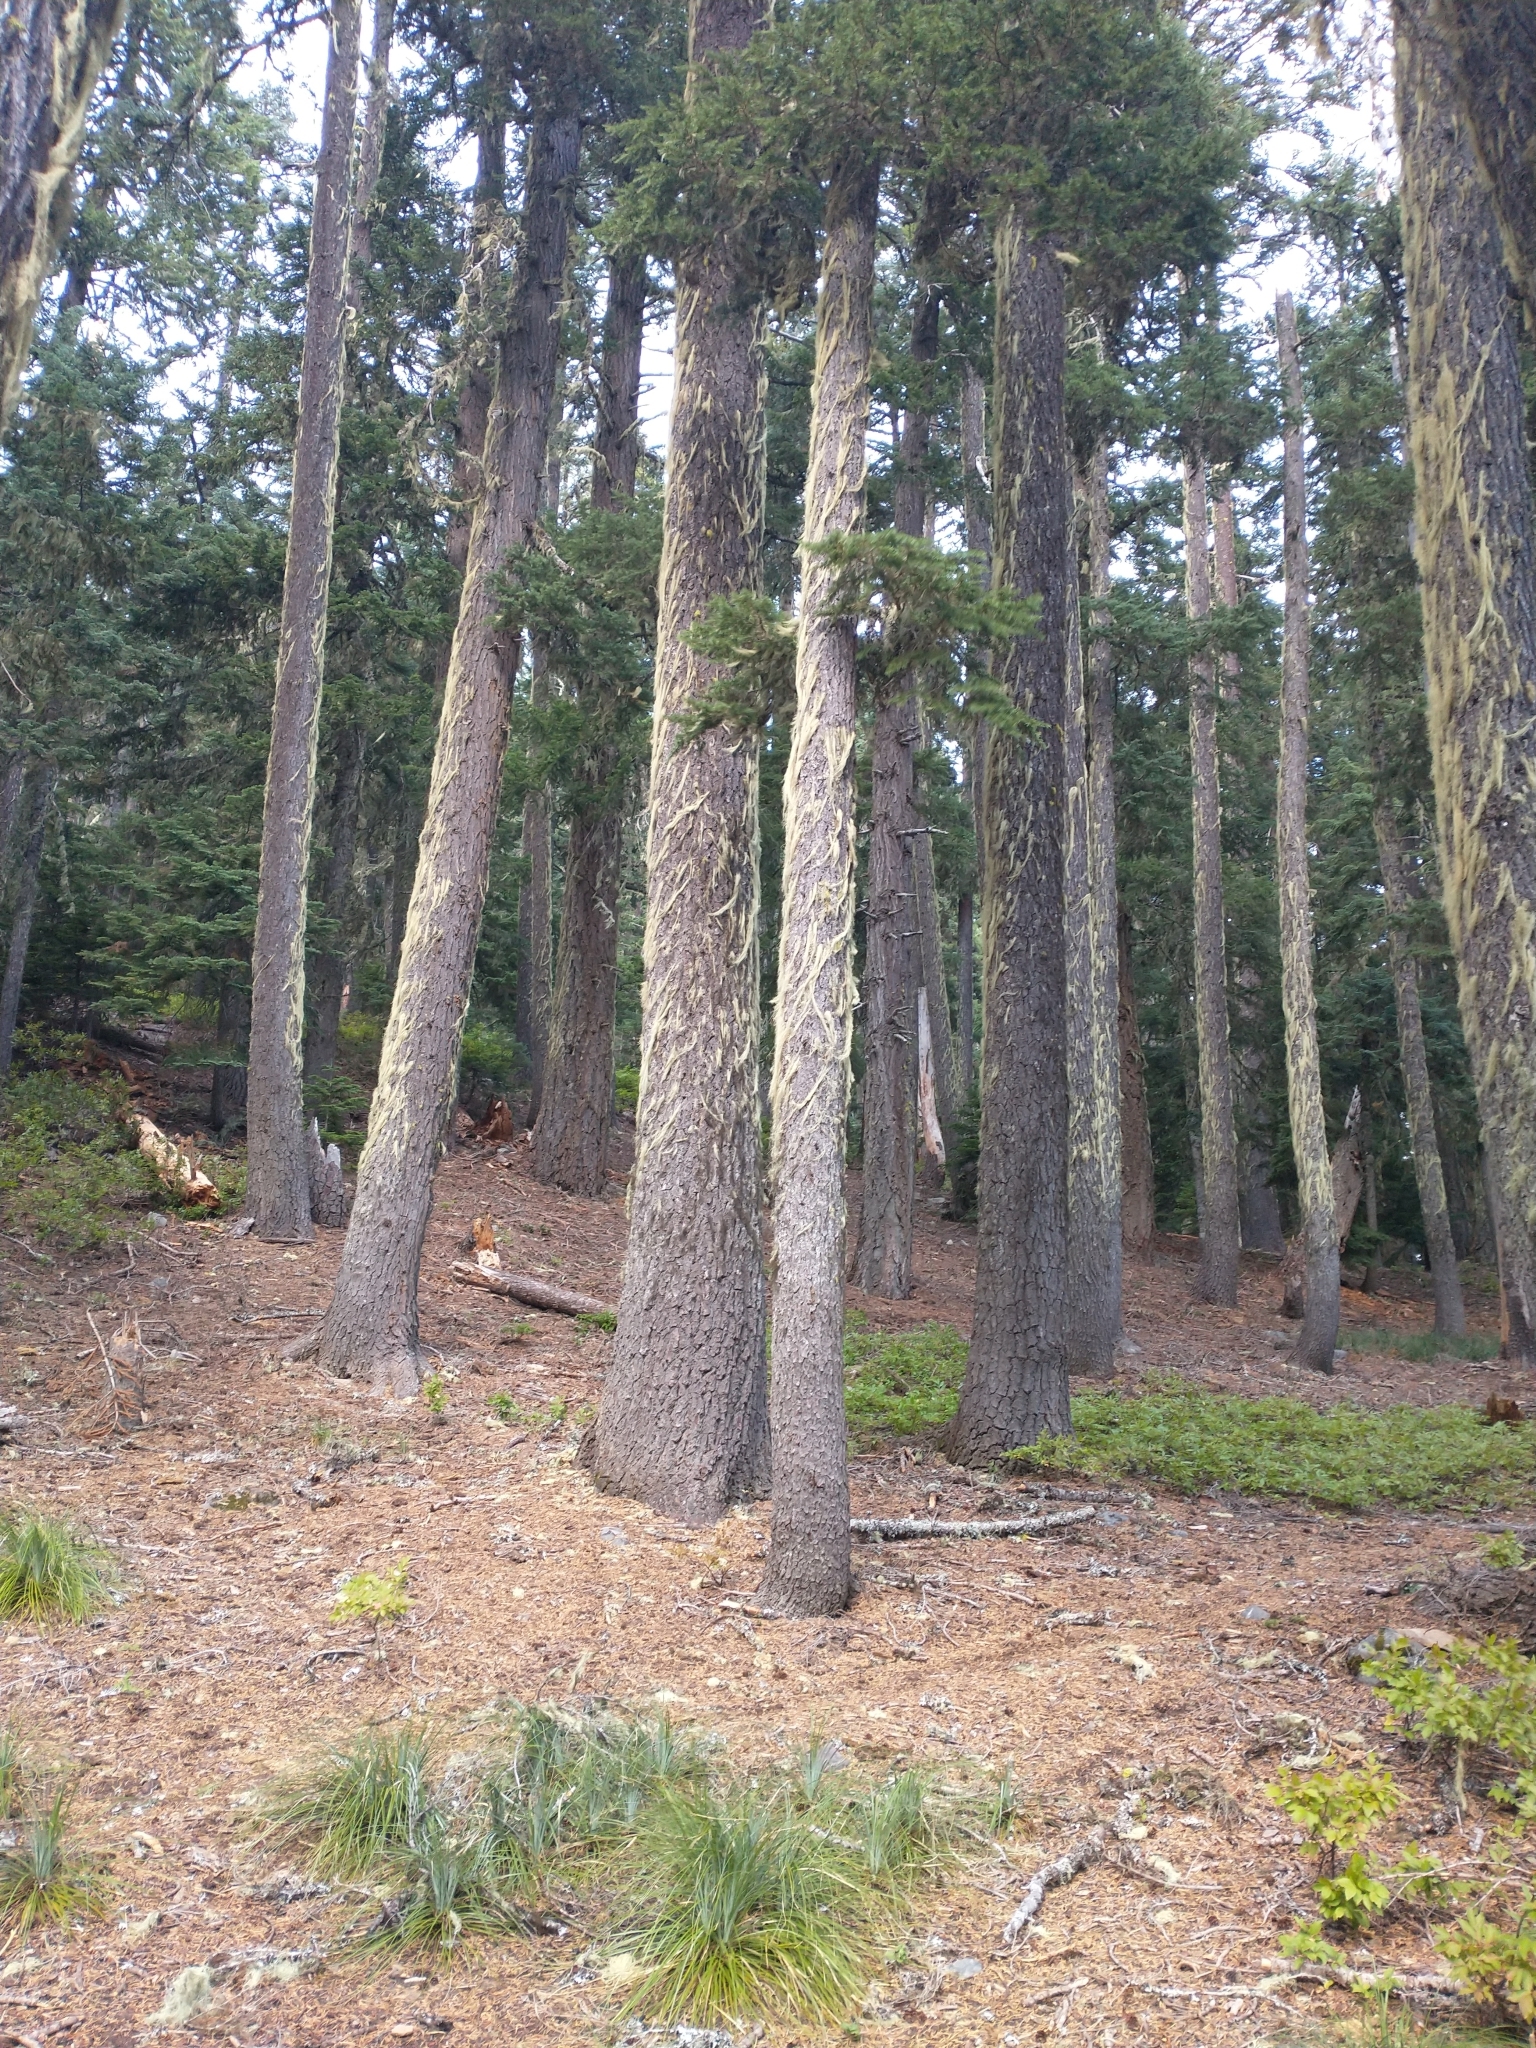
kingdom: Plantae
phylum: Tracheophyta
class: Pinopsida
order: Pinales
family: Pinaceae
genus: Abies
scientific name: Abies procera
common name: Noble fir
